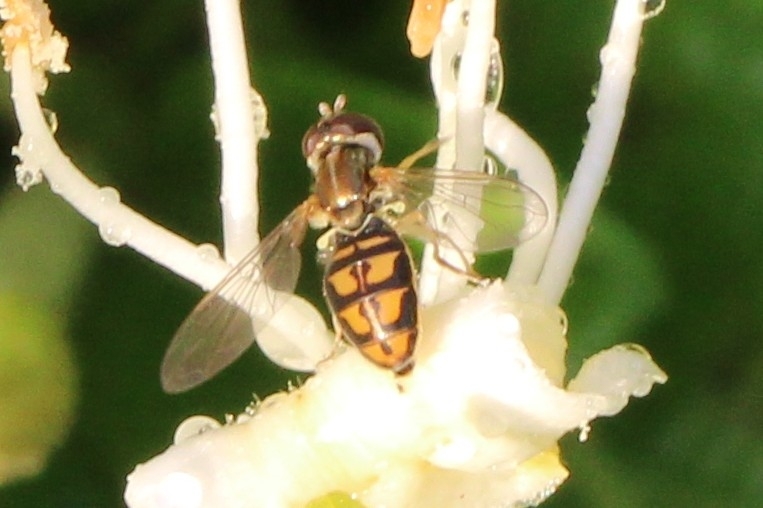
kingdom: Animalia
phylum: Arthropoda
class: Insecta
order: Diptera
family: Syrphidae
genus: Toxomerus
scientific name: Toxomerus marginatus
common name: Syrphid fly
